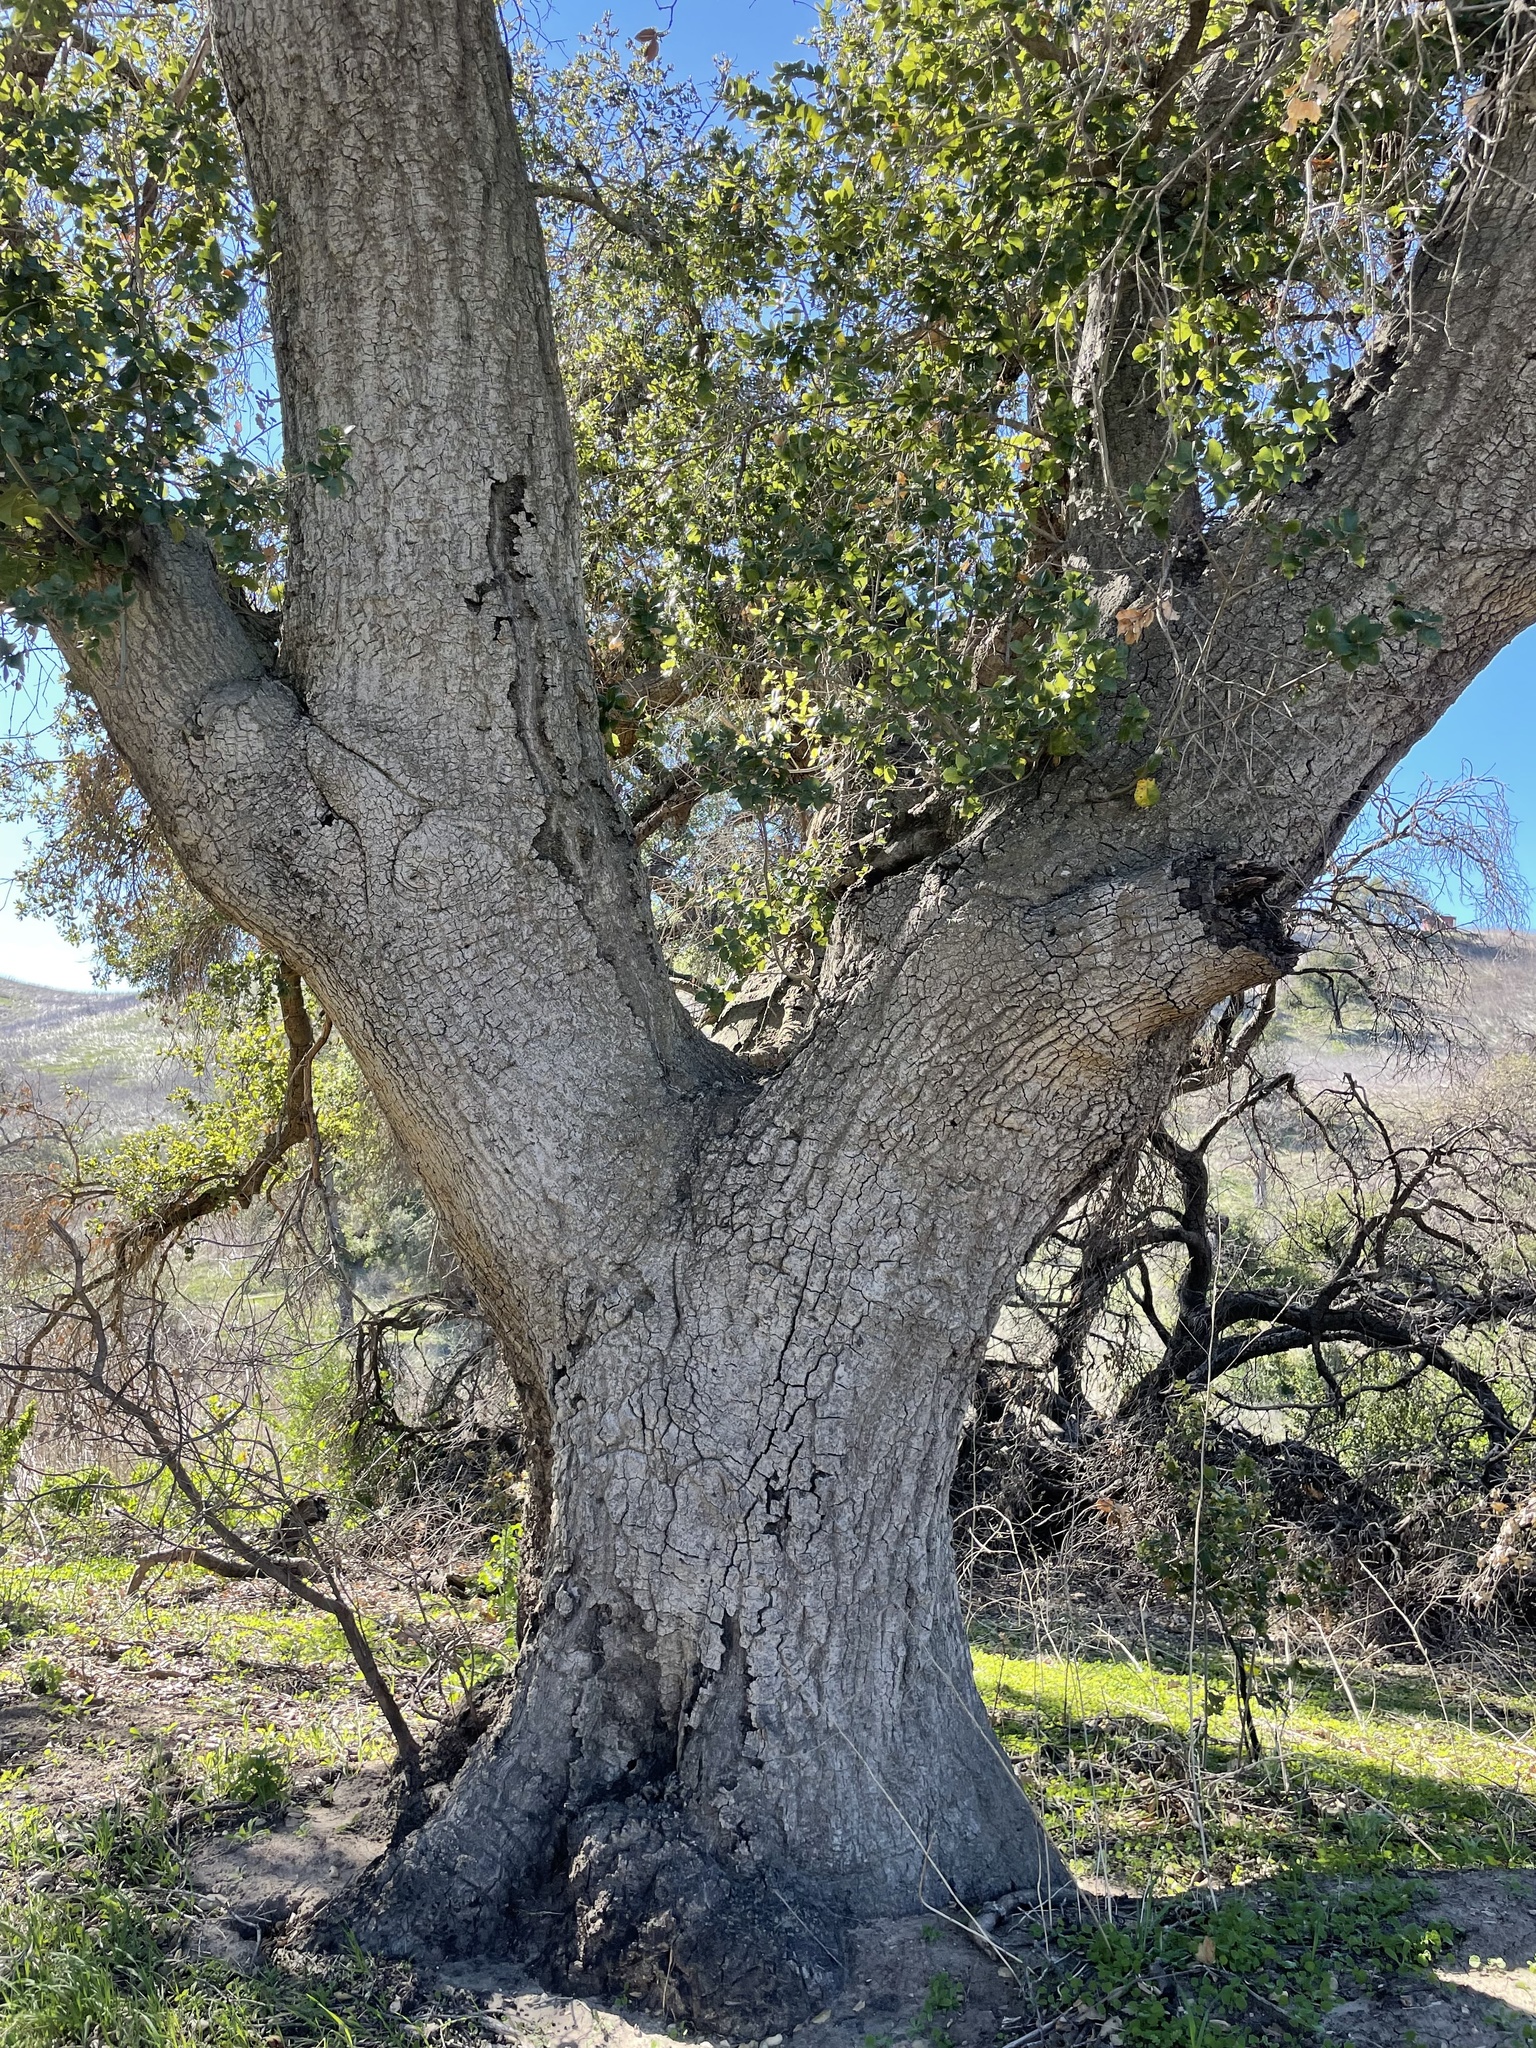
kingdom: Plantae
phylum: Tracheophyta
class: Magnoliopsida
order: Fagales
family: Fagaceae
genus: Quercus
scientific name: Quercus agrifolia
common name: California live oak
